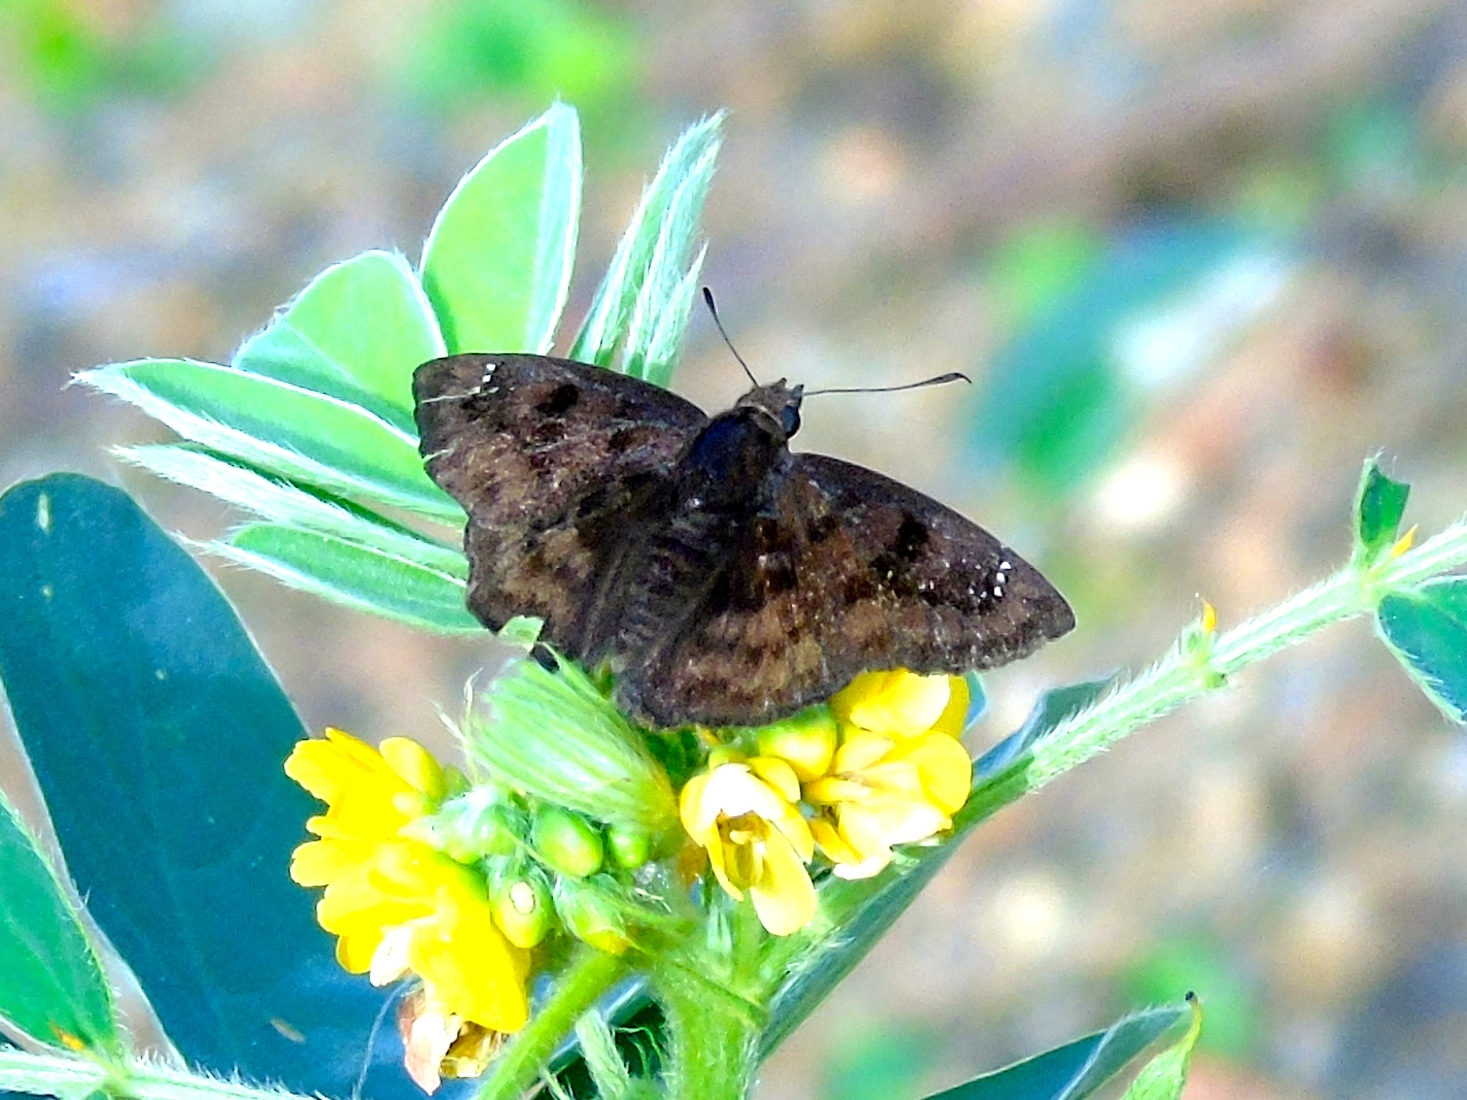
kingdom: Animalia
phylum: Arthropoda
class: Insecta
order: Lepidoptera
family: Hesperiidae
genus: Nisoniades
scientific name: Nisoniades
